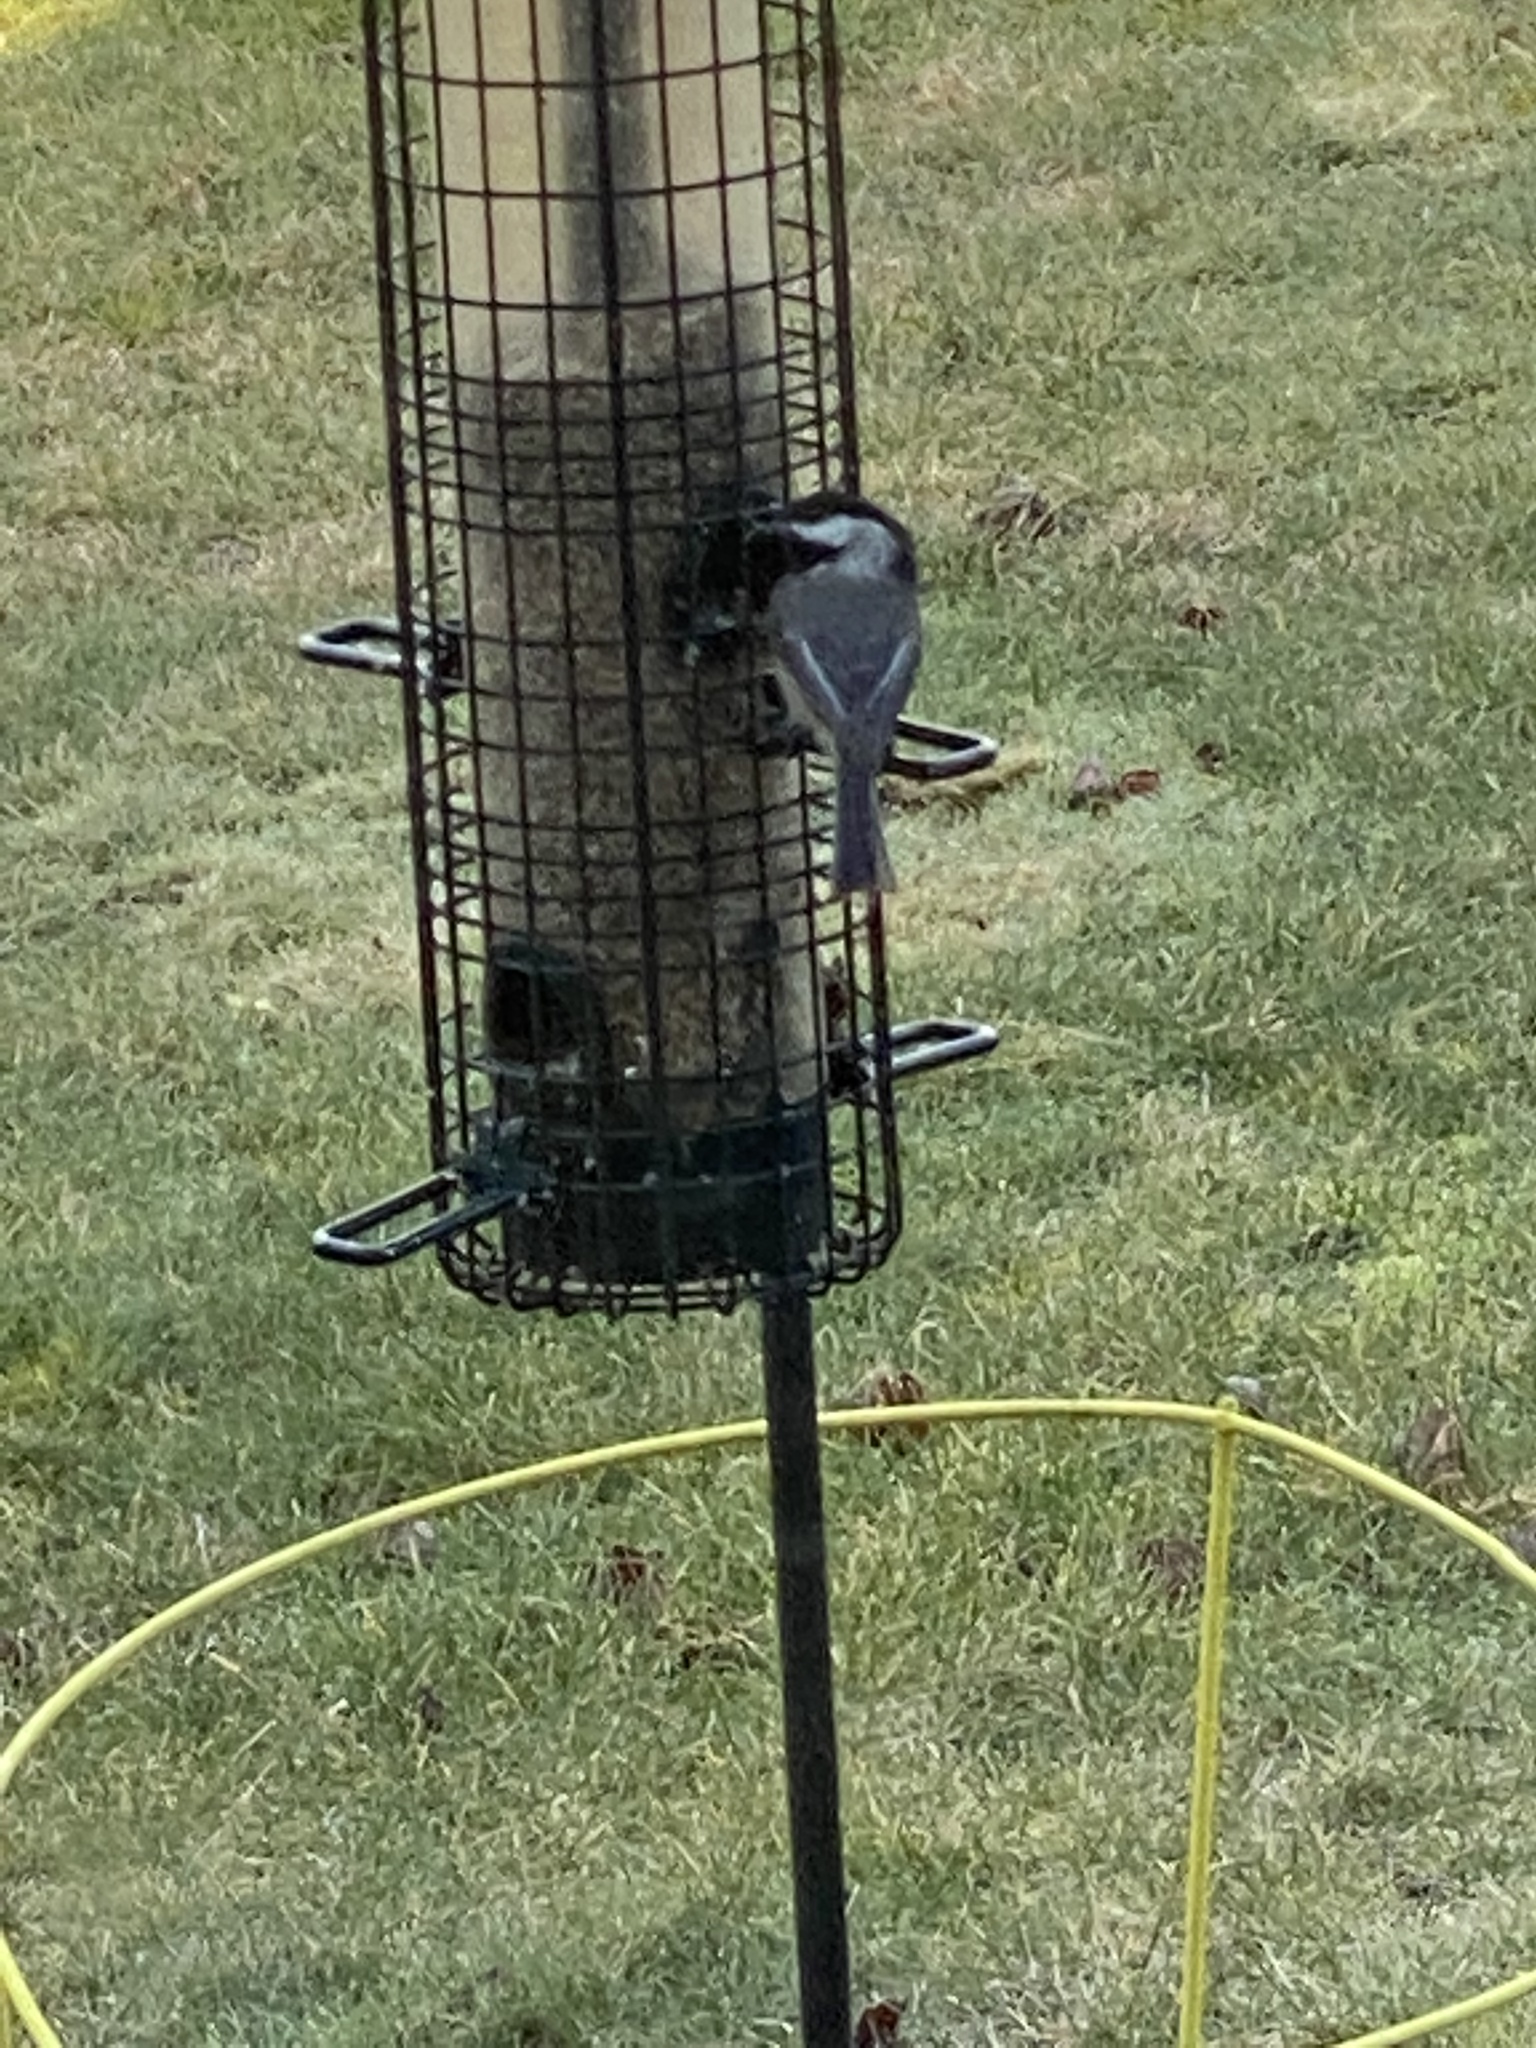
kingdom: Animalia
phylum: Chordata
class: Aves
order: Passeriformes
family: Paridae
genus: Poecile
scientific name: Poecile atricapillus
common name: Black-capped chickadee
